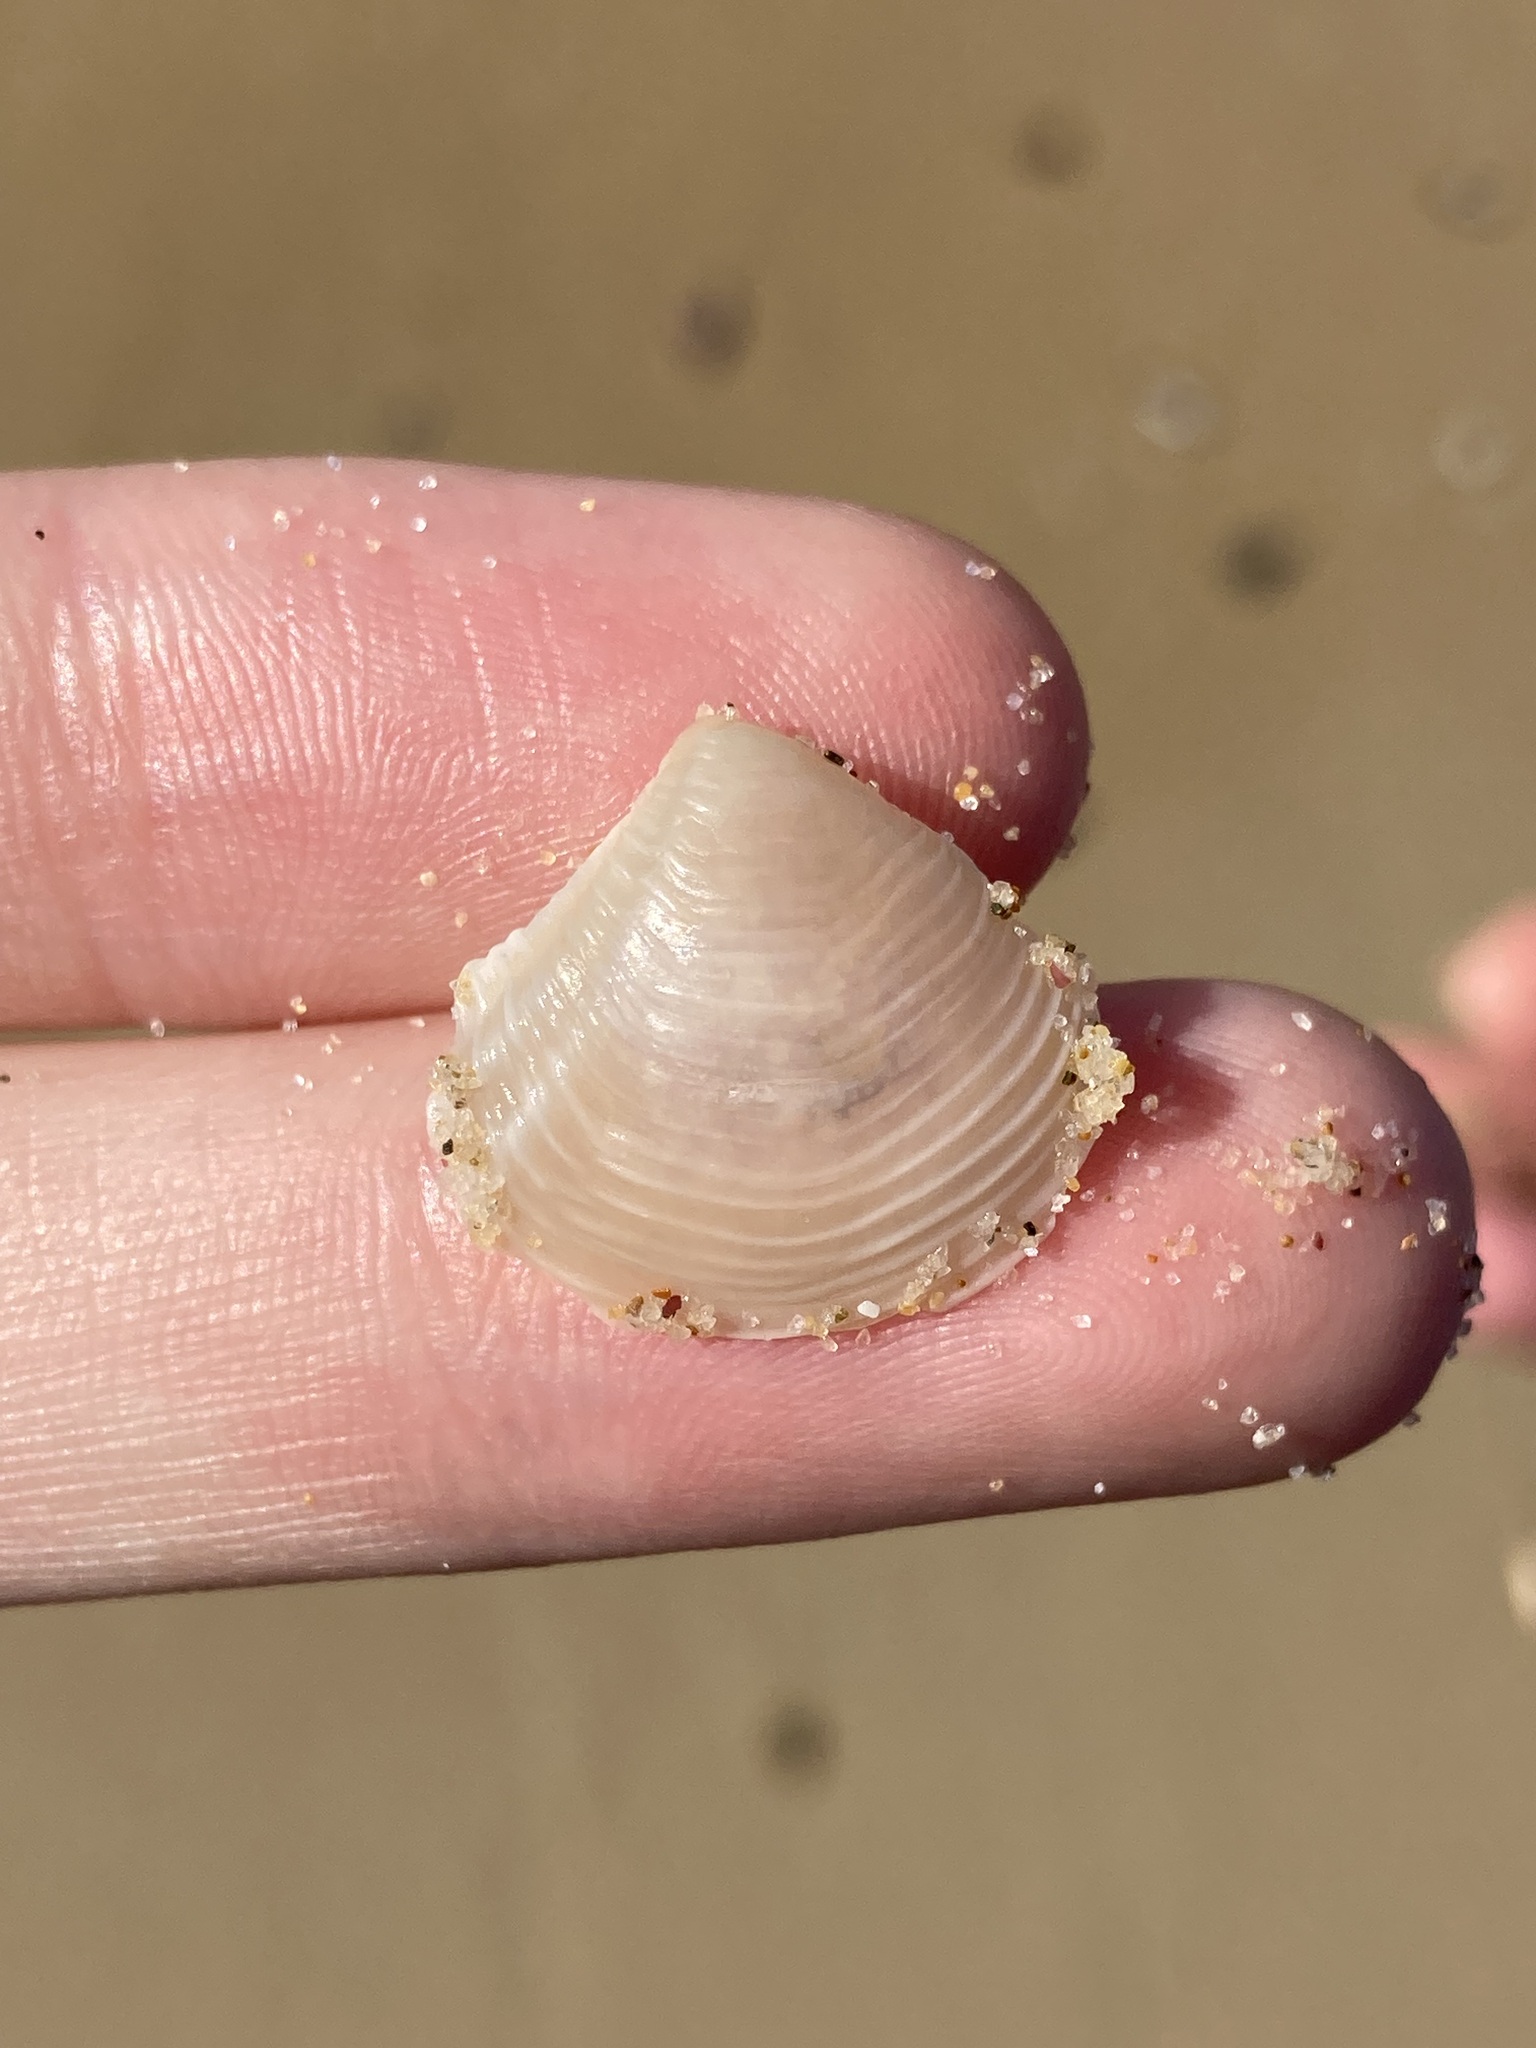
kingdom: Animalia
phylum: Mollusca
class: Bivalvia
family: Myochamidae
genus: Myadora
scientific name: Myadora brevis
